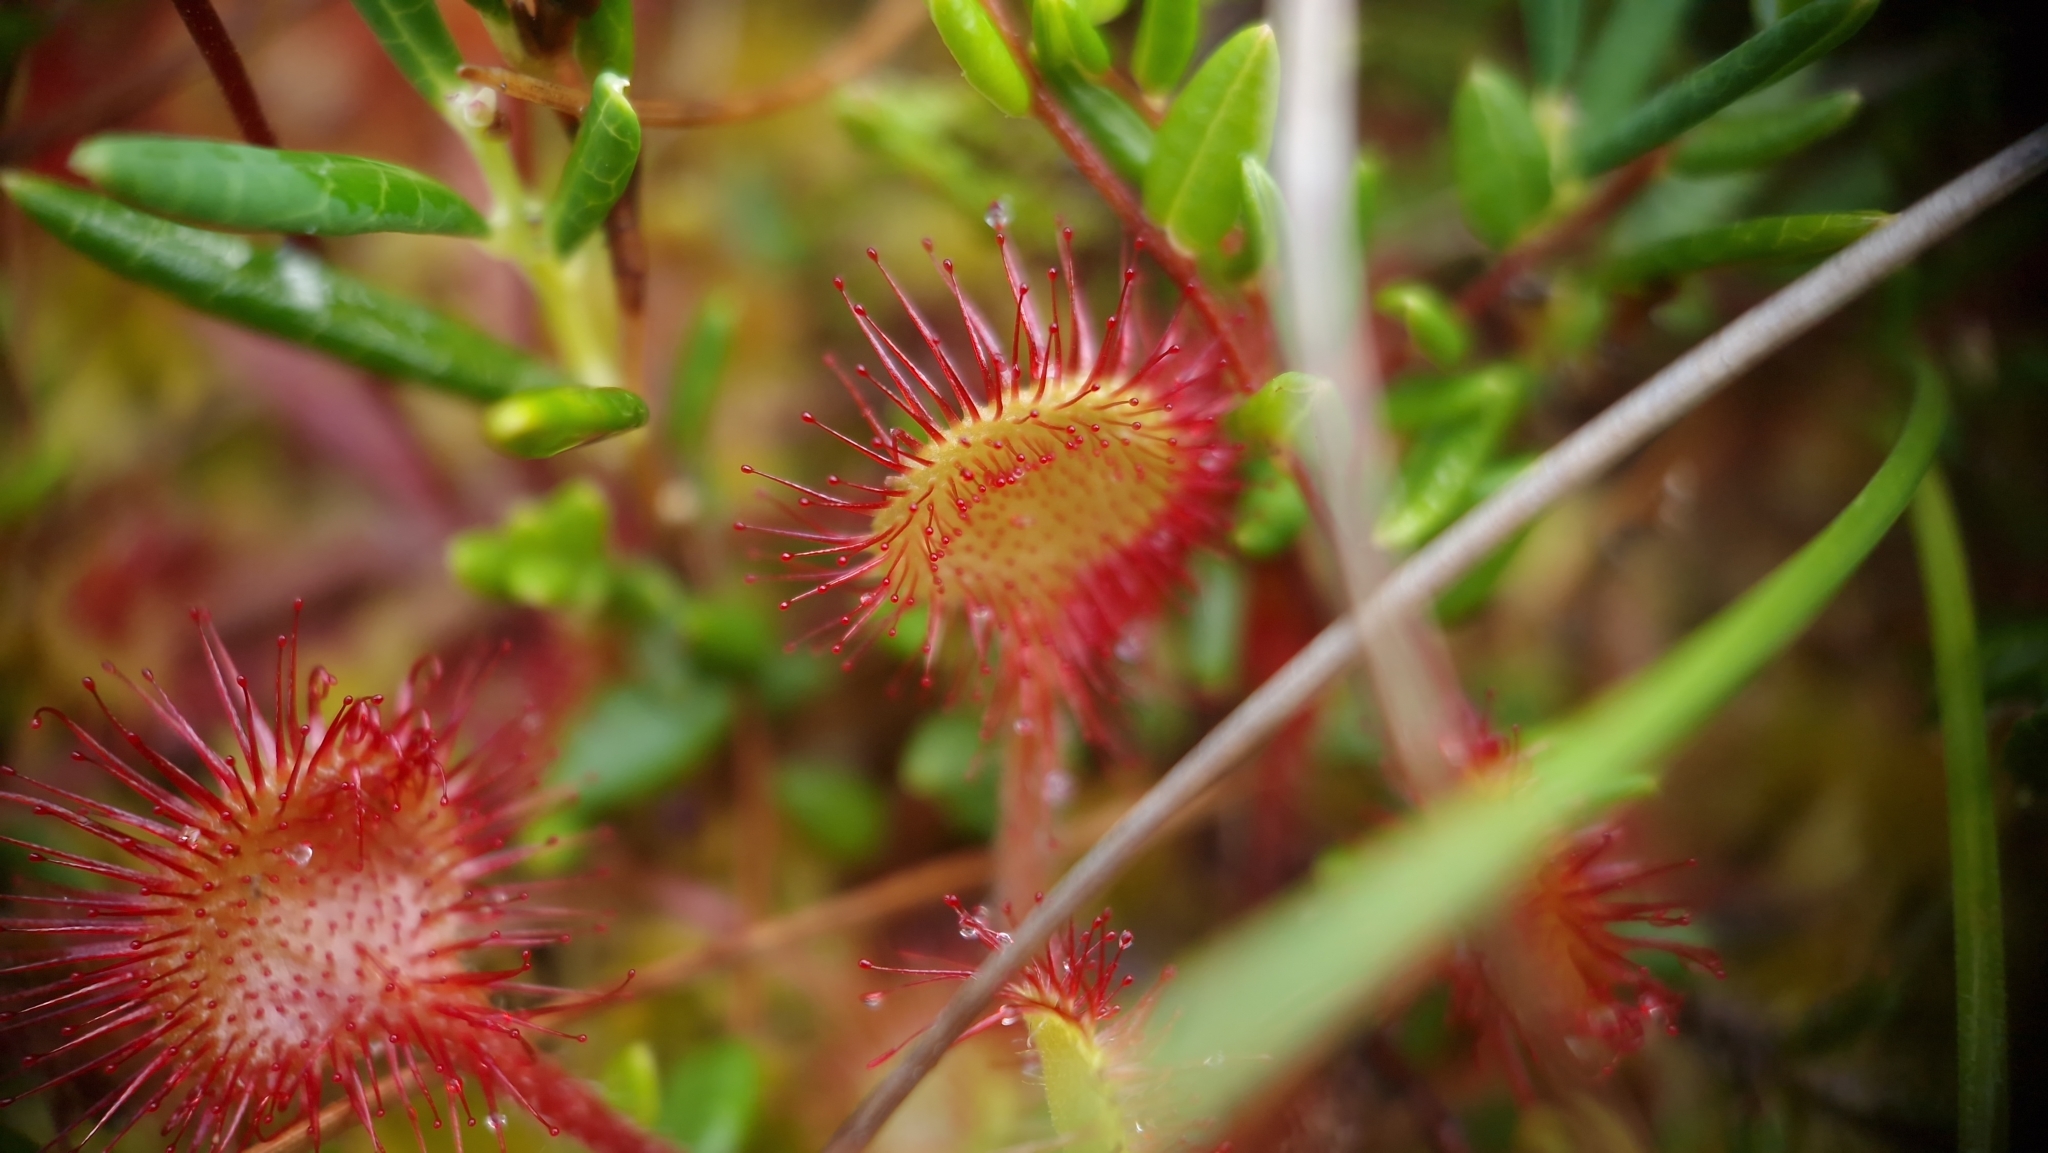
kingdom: Plantae
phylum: Tracheophyta
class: Magnoliopsida
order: Caryophyllales
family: Droseraceae
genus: Drosera
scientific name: Drosera rotundifolia
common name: Round-leaved sundew
